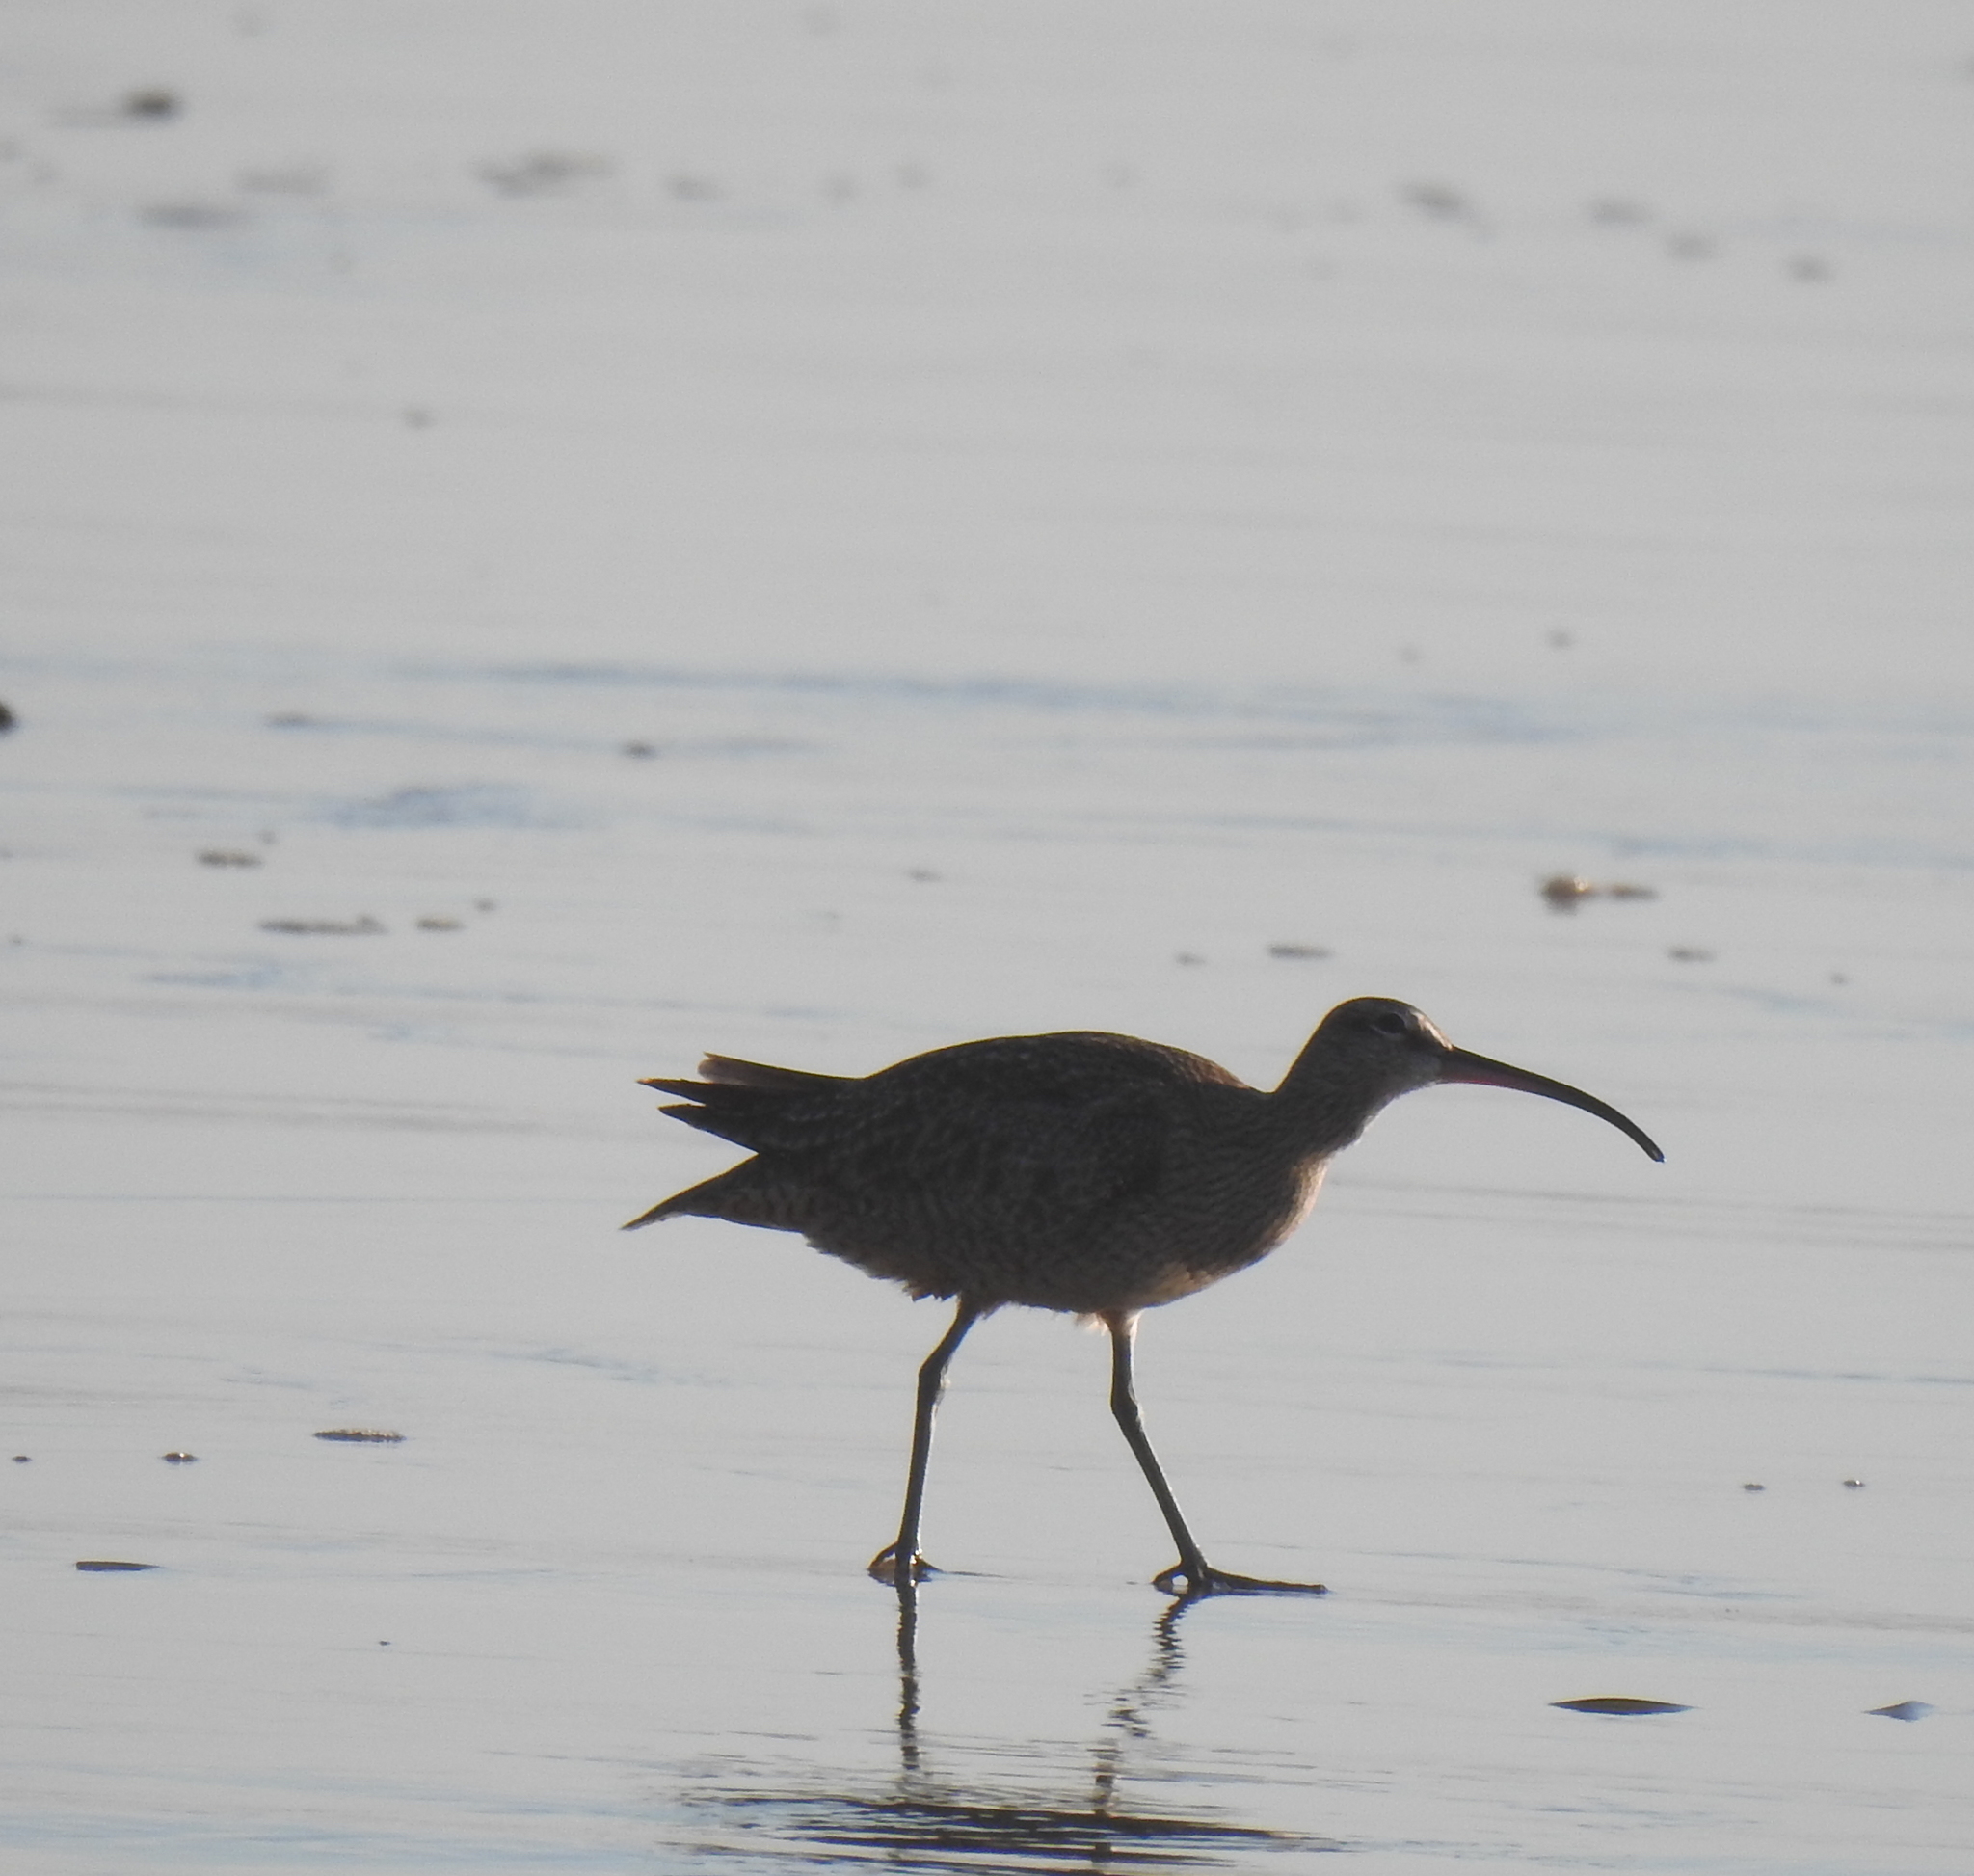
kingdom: Animalia
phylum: Chordata
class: Aves
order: Charadriiformes
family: Scolopacidae
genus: Numenius
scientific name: Numenius phaeopus
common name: Whimbrel
